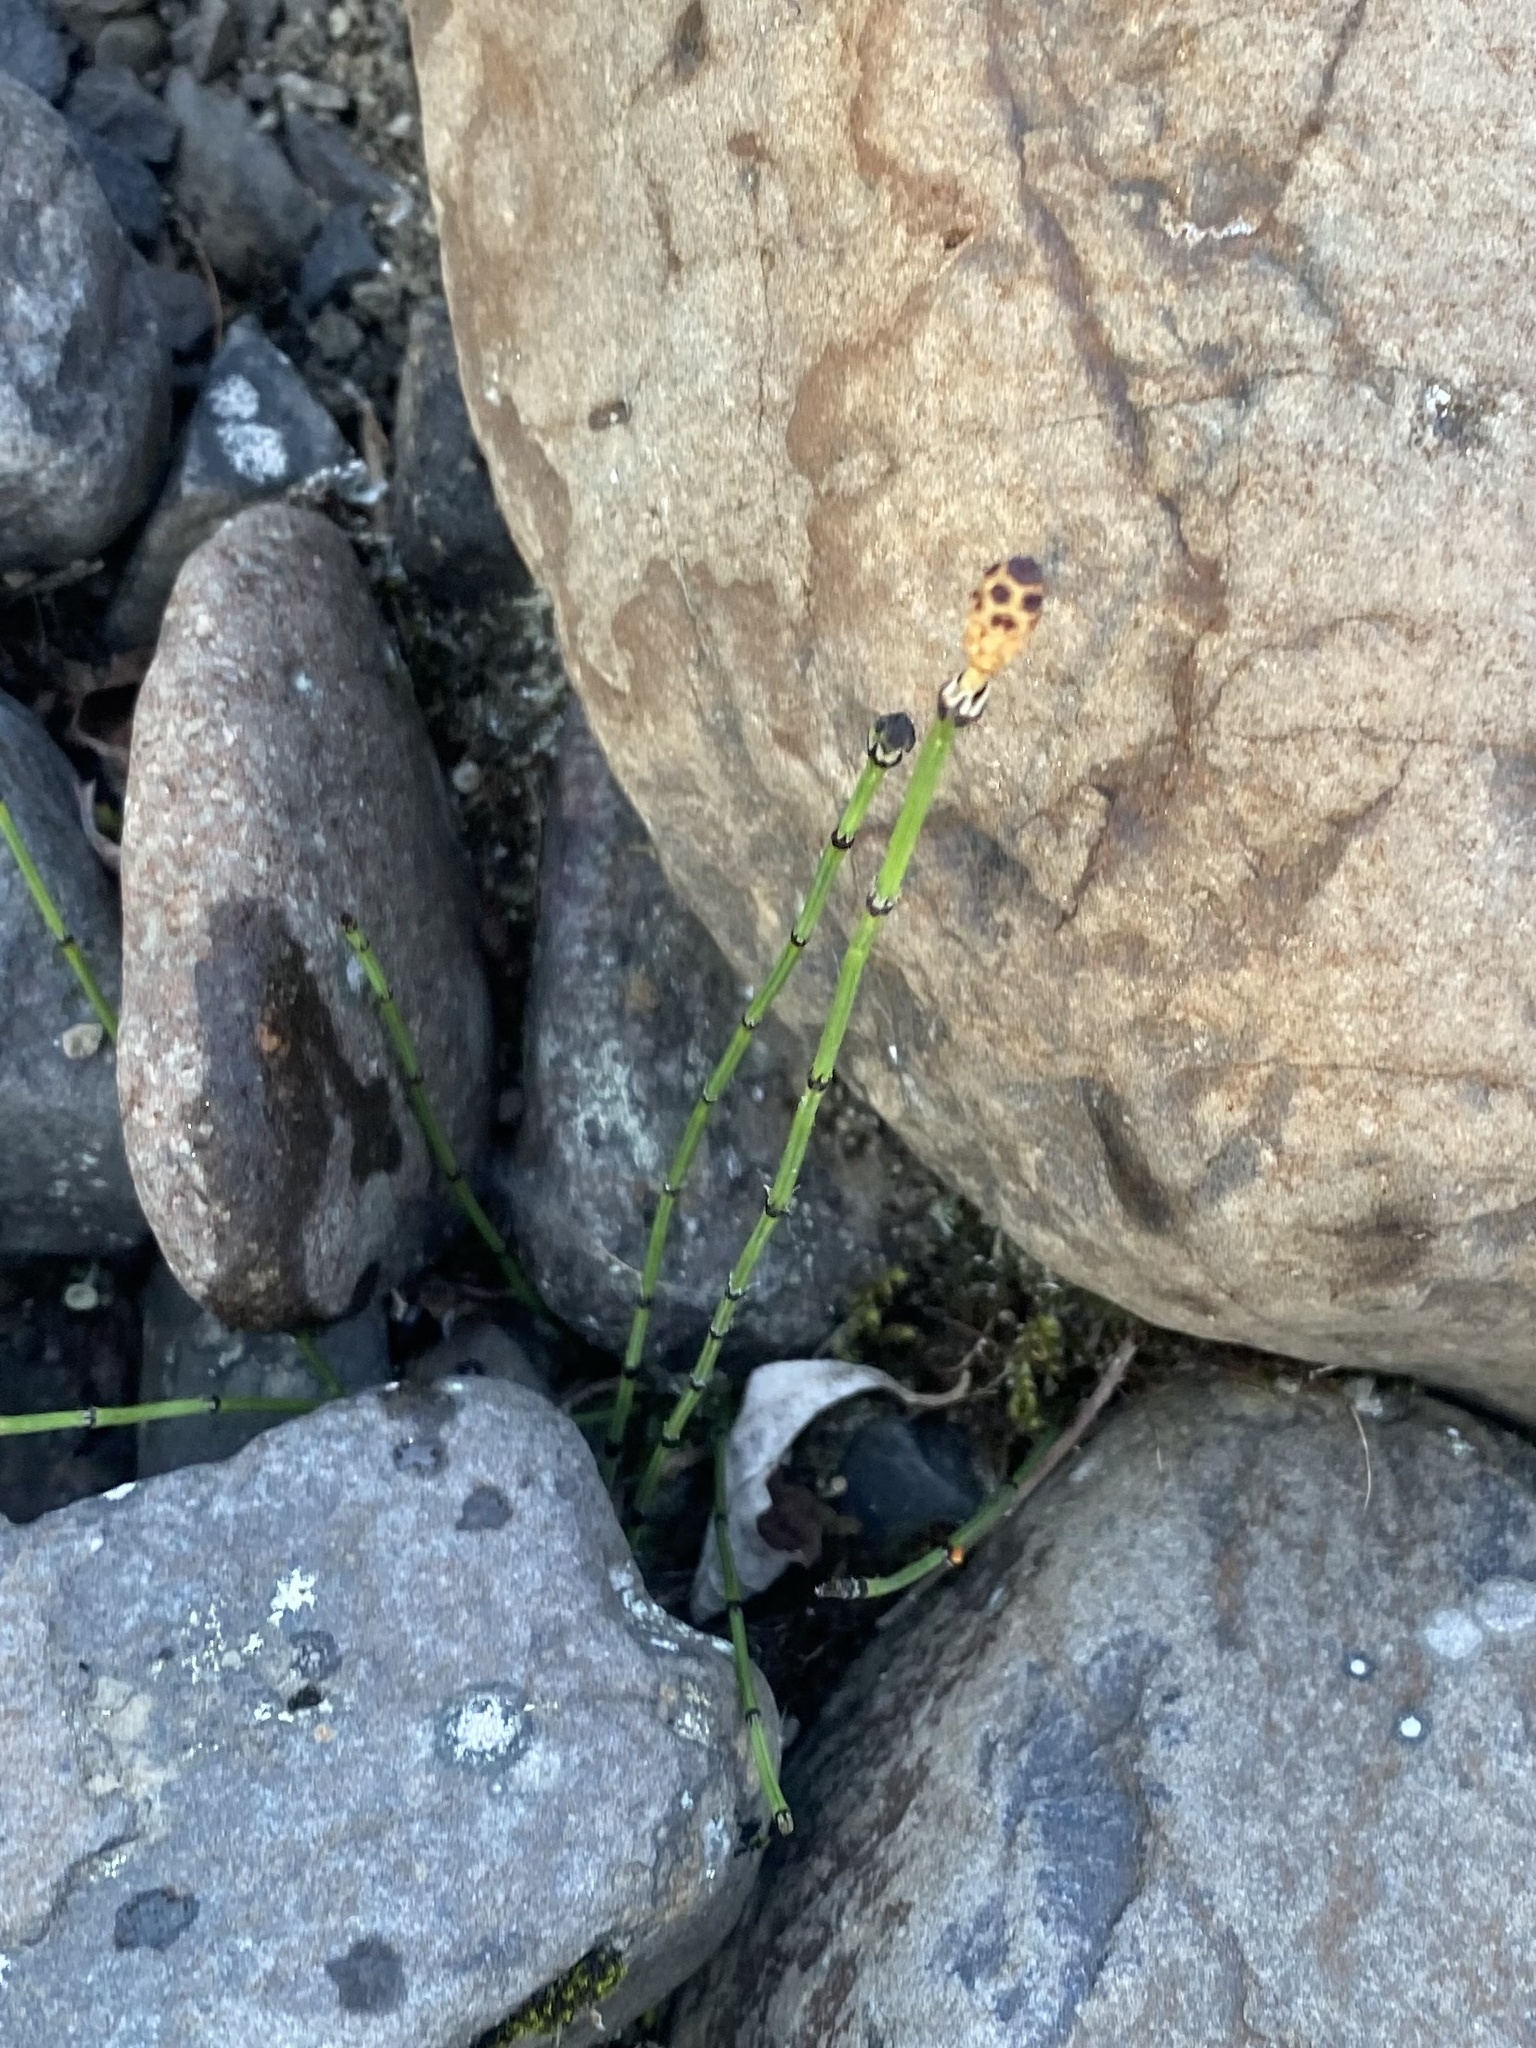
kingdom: Plantae
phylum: Tracheophyta
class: Polypodiopsida
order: Equisetales
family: Equisetaceae
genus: Equisetum
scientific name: Equisetum variegatum
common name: Variegated horsetail
